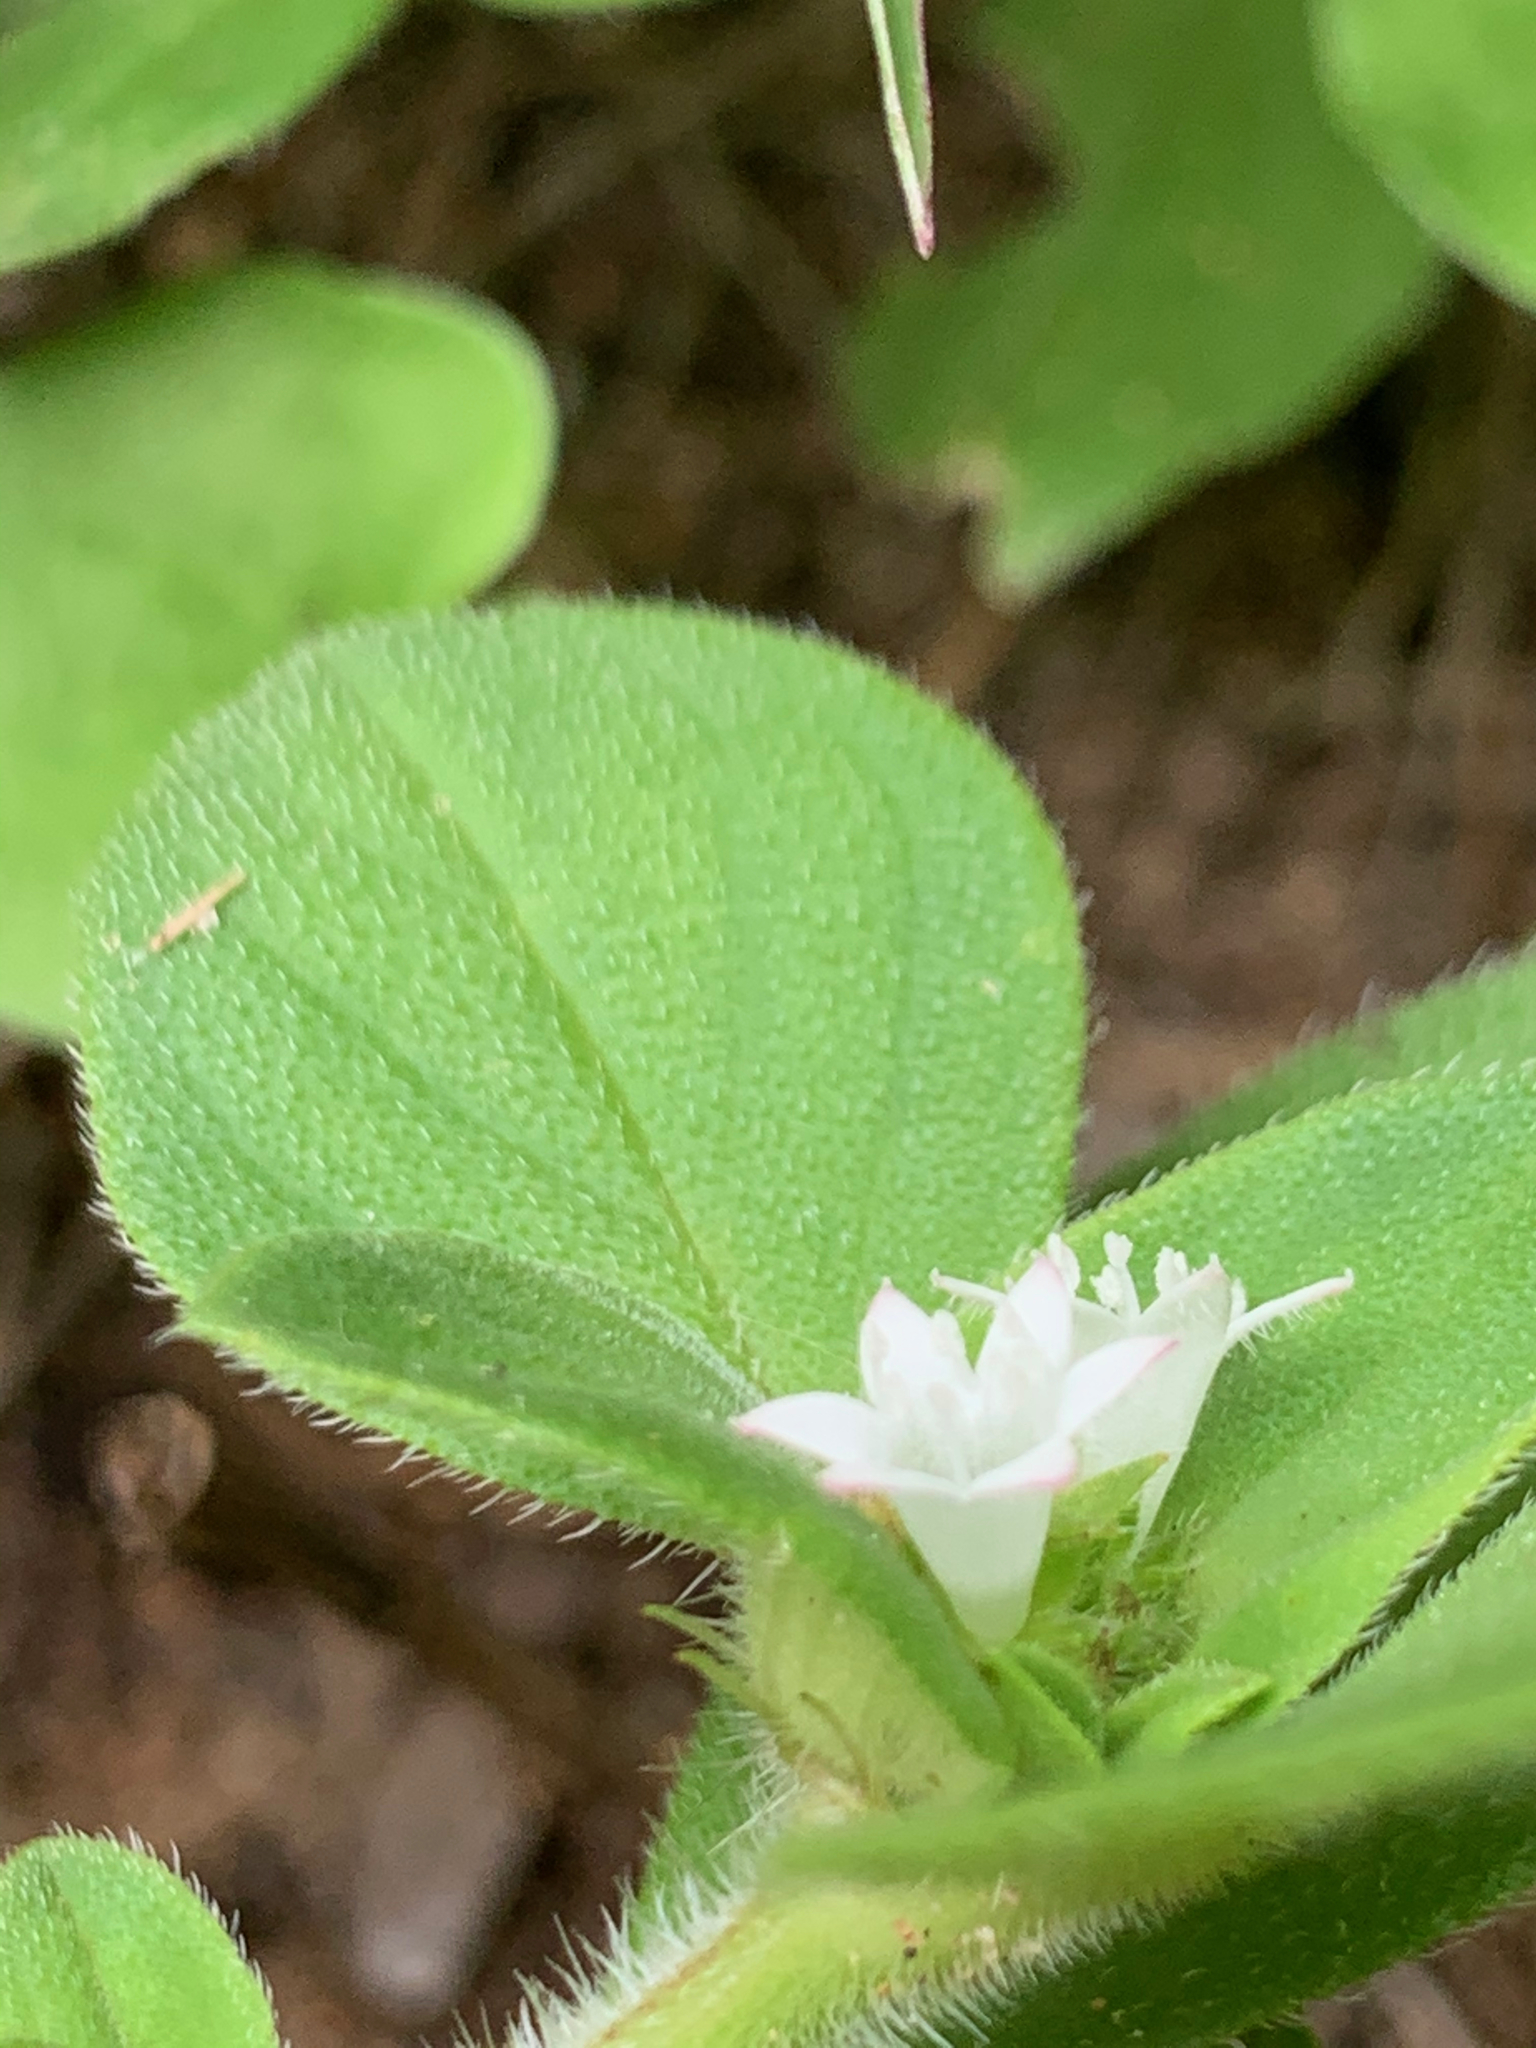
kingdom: Plantae
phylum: Tracheophyta
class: Magnoliopsida
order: Gentianales
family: Rubiaceae
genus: Richardia
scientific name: Richardia brasiliensis
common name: Tropical mexican clover
